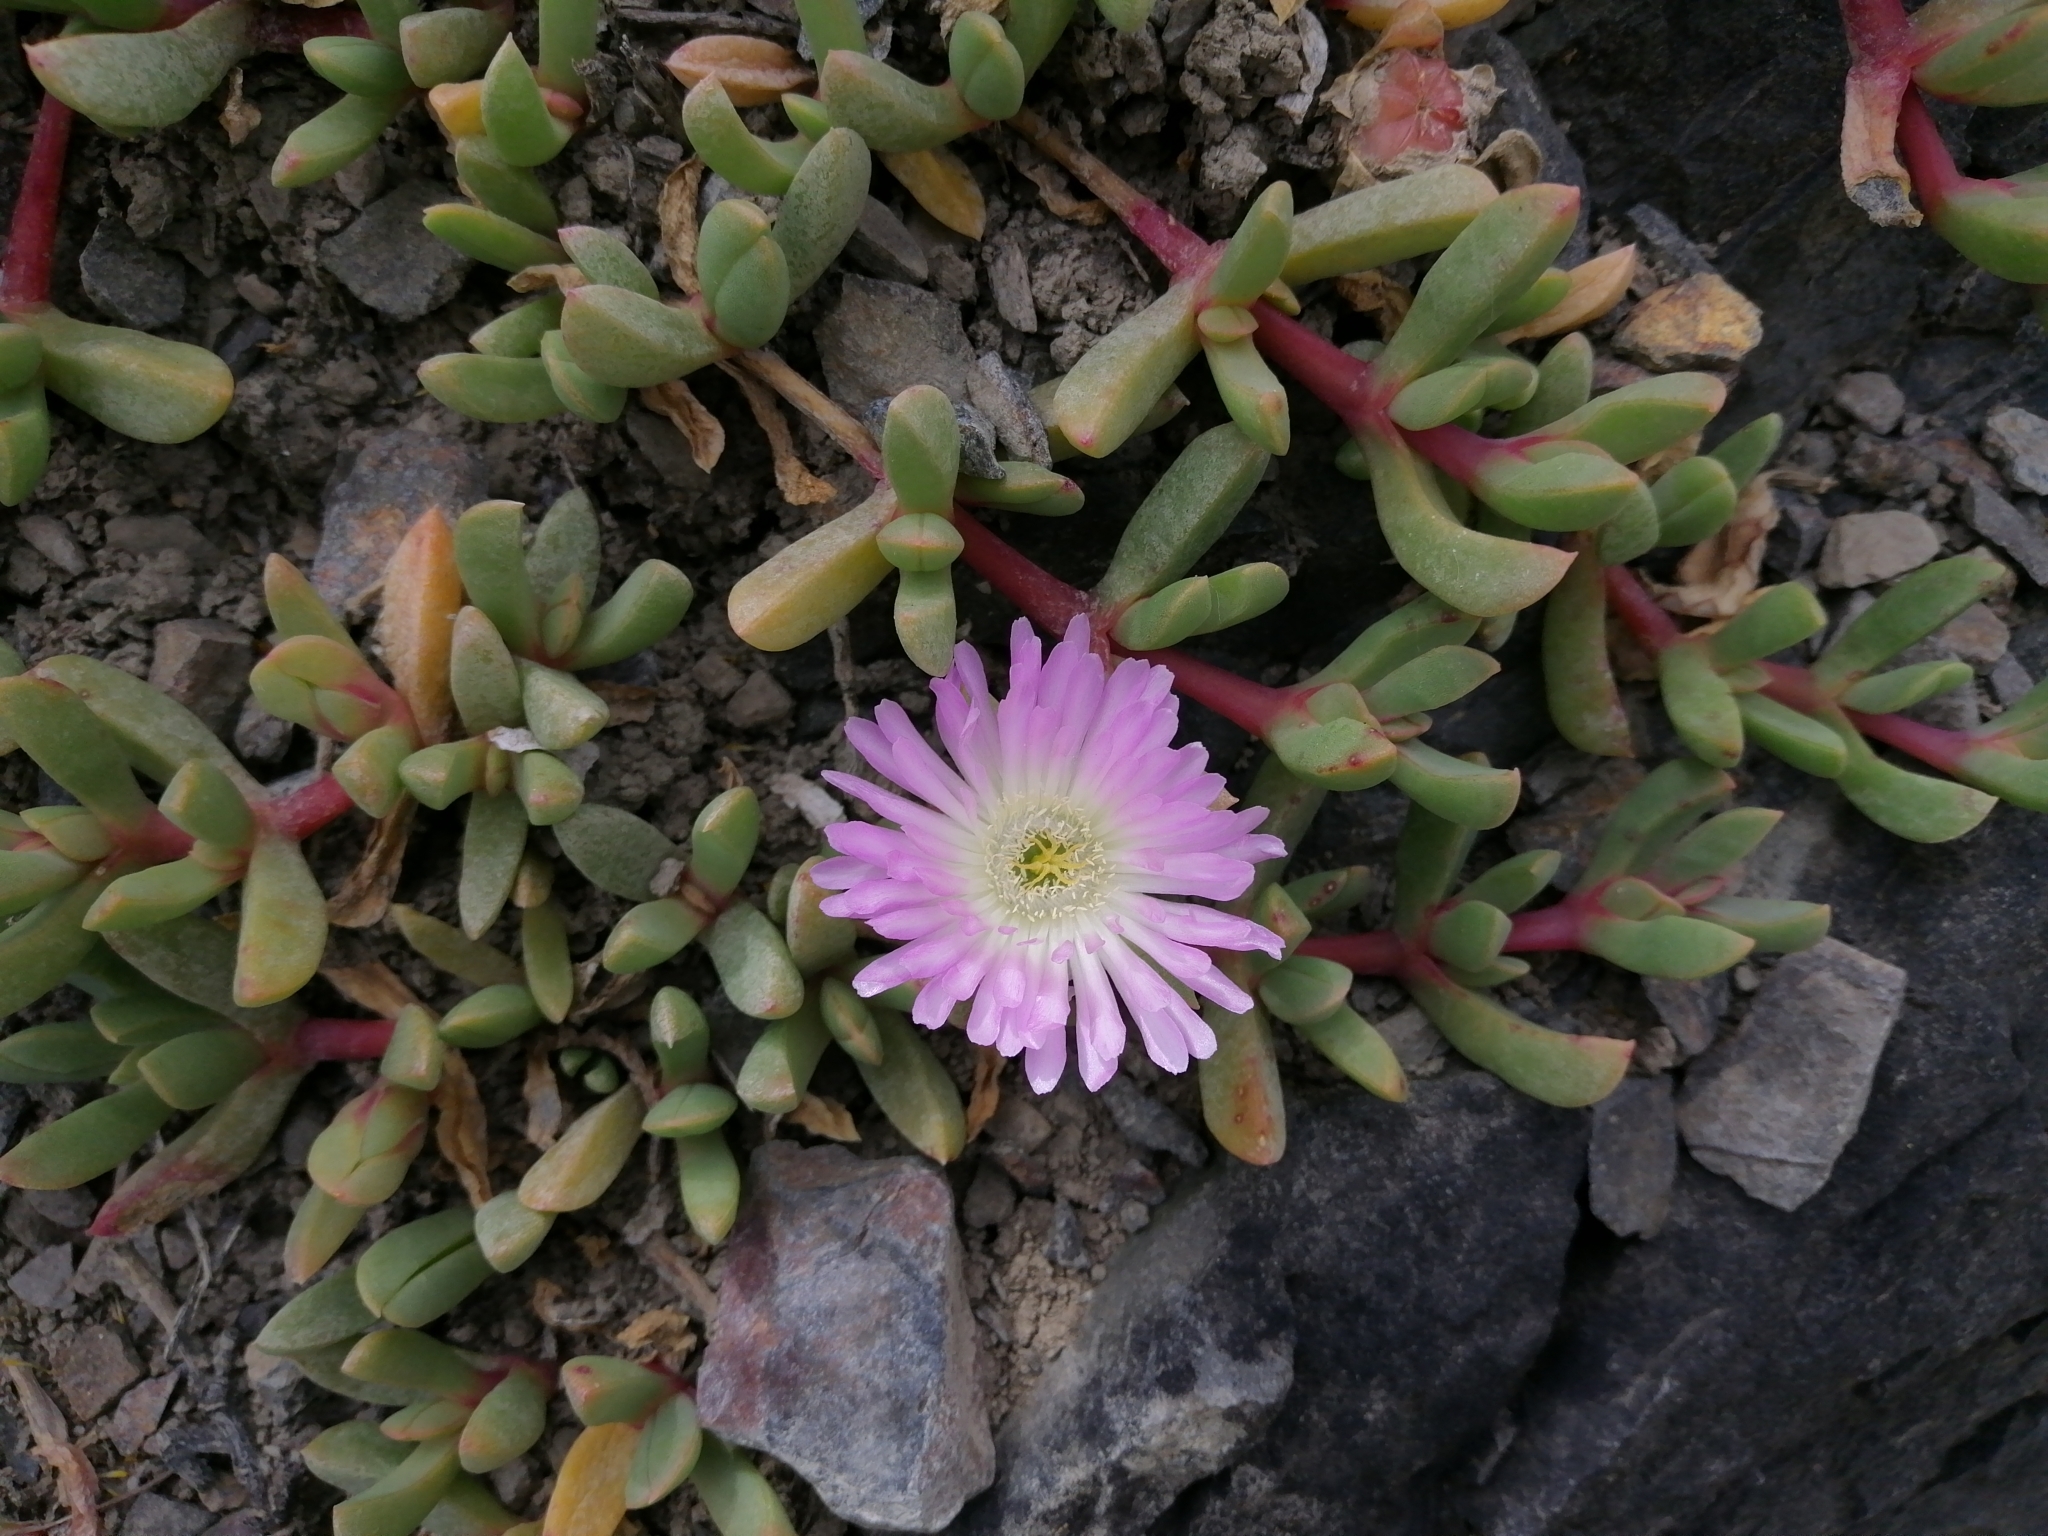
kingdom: Plantae
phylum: Tracheophyta
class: Magnoliopsida
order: Caryophyllales
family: Aizoaceae
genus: Disphyma
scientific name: Disphyma australe
